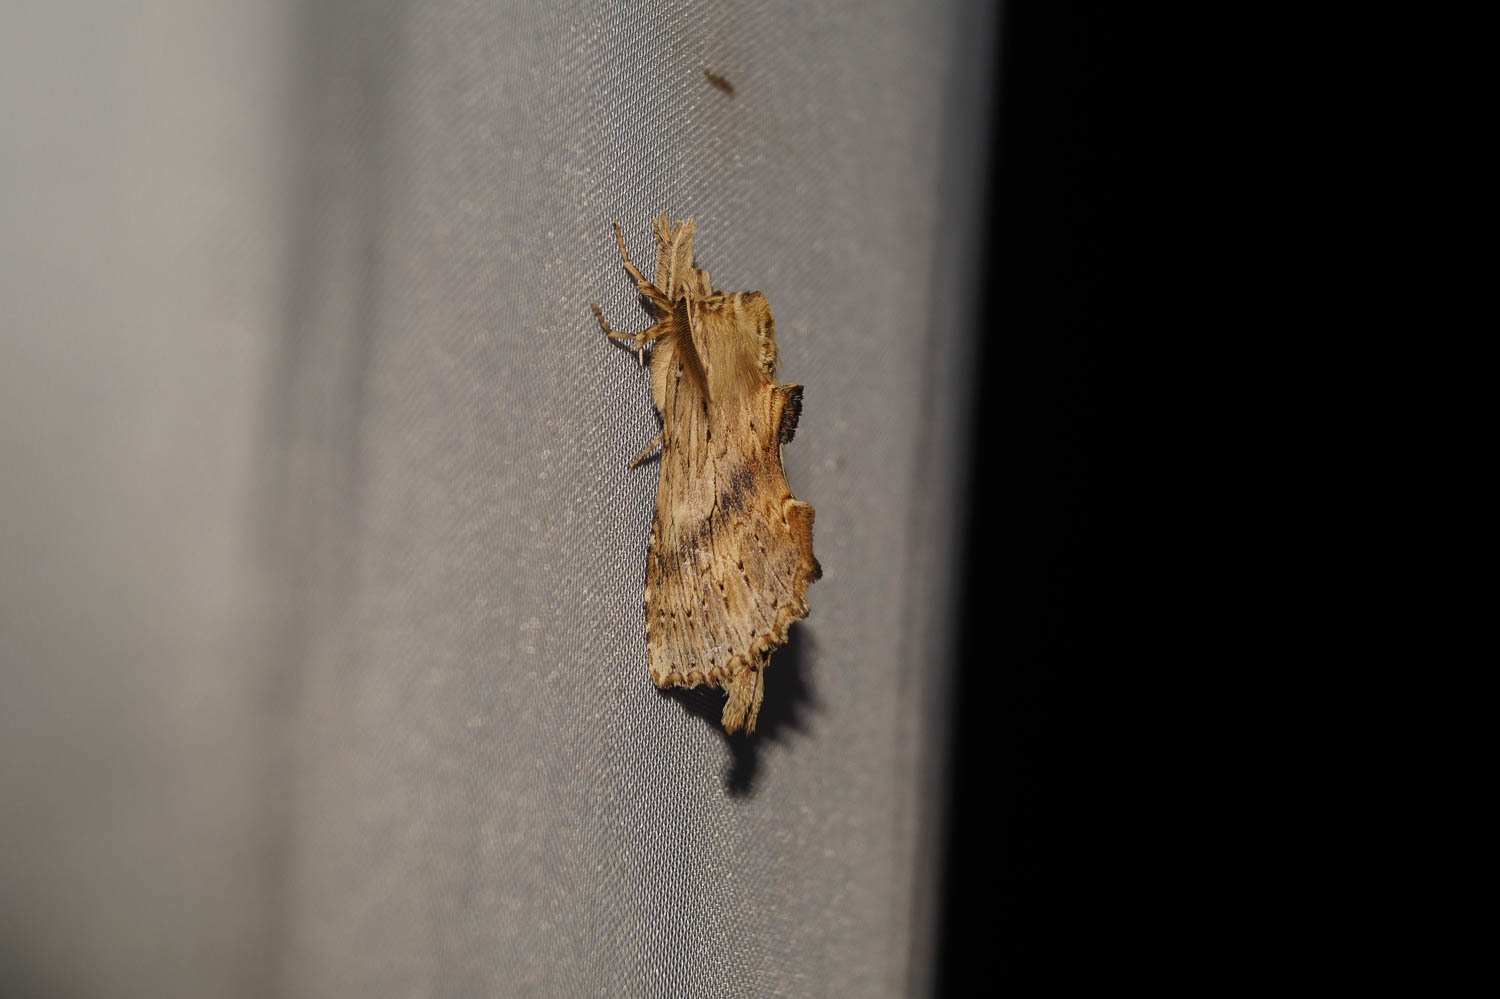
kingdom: Animalia
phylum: Arthropoda
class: Insecta
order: Lepidoptera
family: Notodontidae
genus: Pterostoma
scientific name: Pterostoma palpina
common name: Pale prominent
